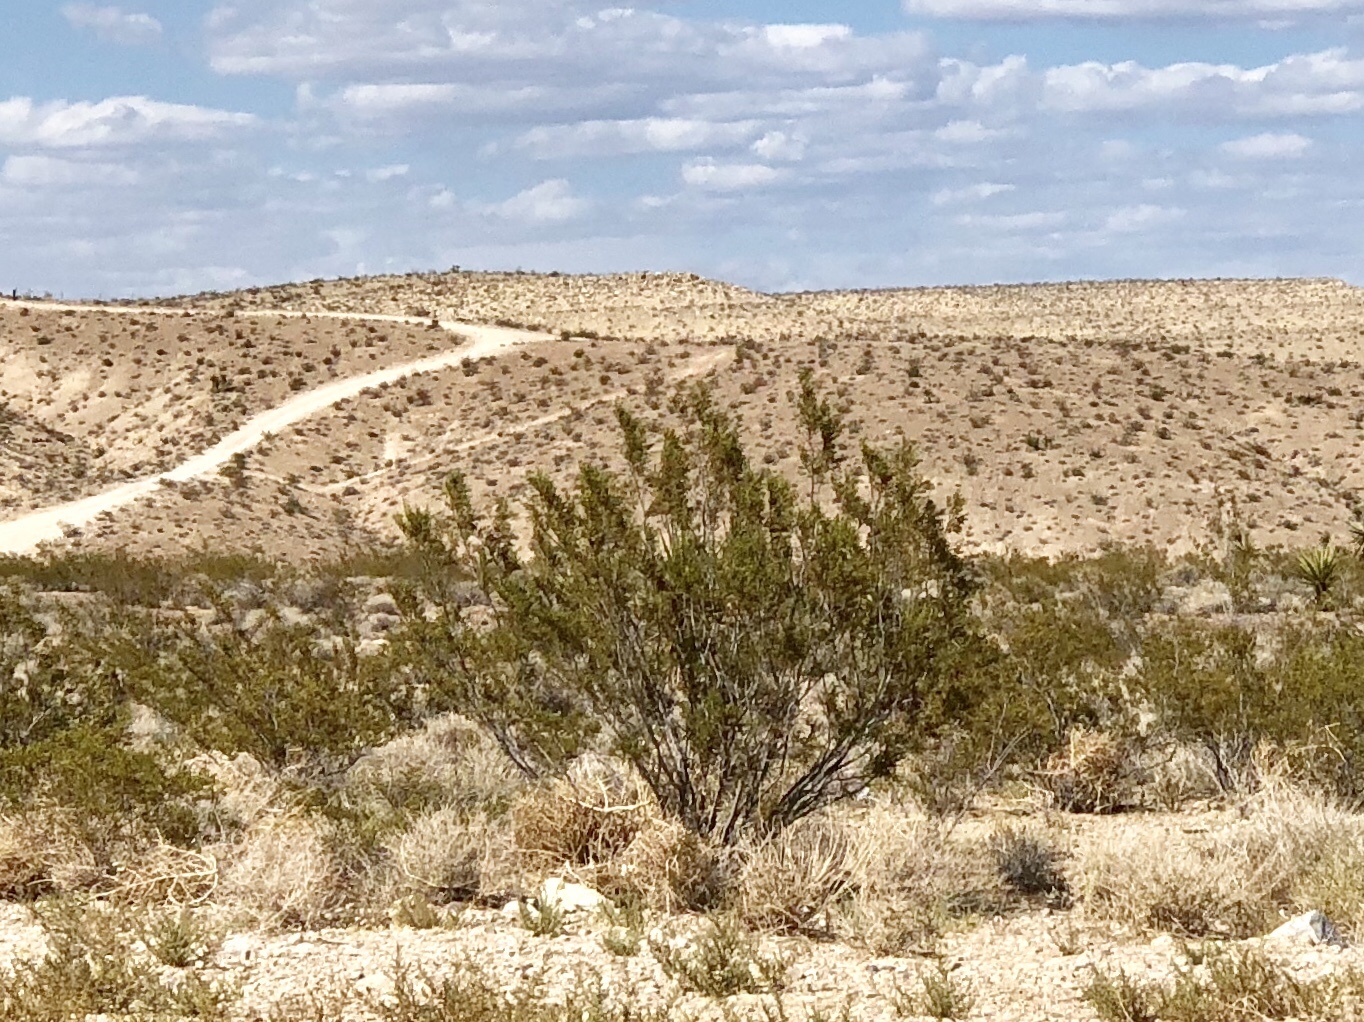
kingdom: Plantae
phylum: Tracheophyta
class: Magnoliopsida
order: Zygophyllales
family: Zygophyllaceae
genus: Larrea
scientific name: Larrea tridentata
